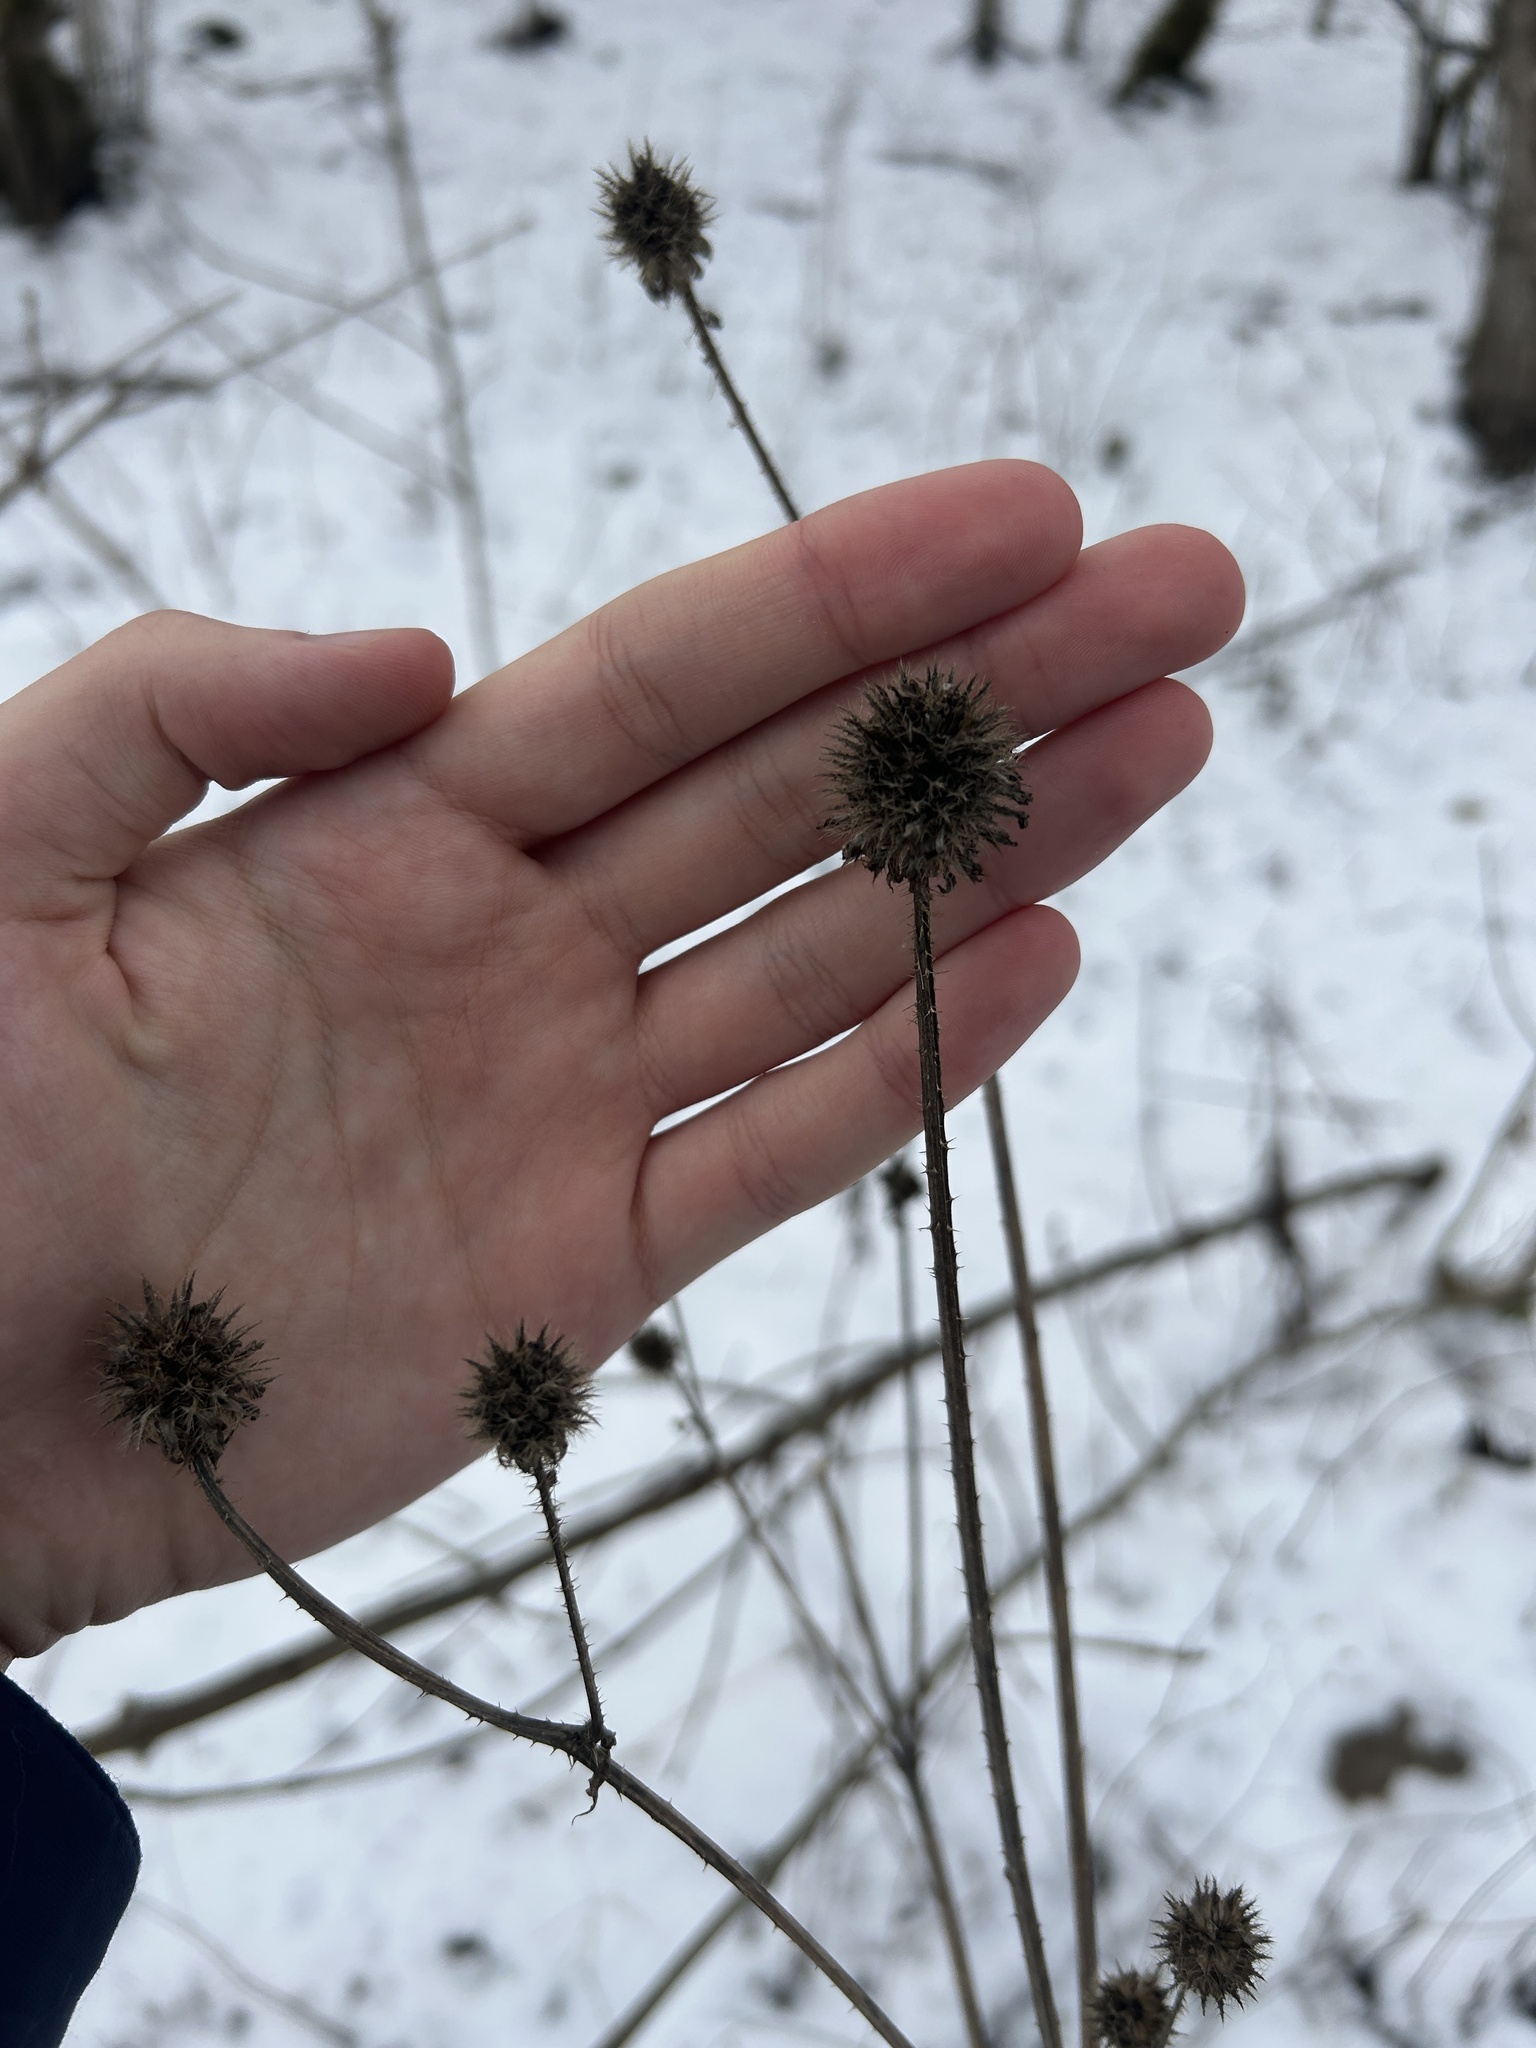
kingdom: Plantae
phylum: Tracheophyta
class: Magnoliopsida
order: Dipsacales
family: Caprifoliaceae
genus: Dipsacus
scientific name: Dipsacus pilosus
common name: Small teasel
